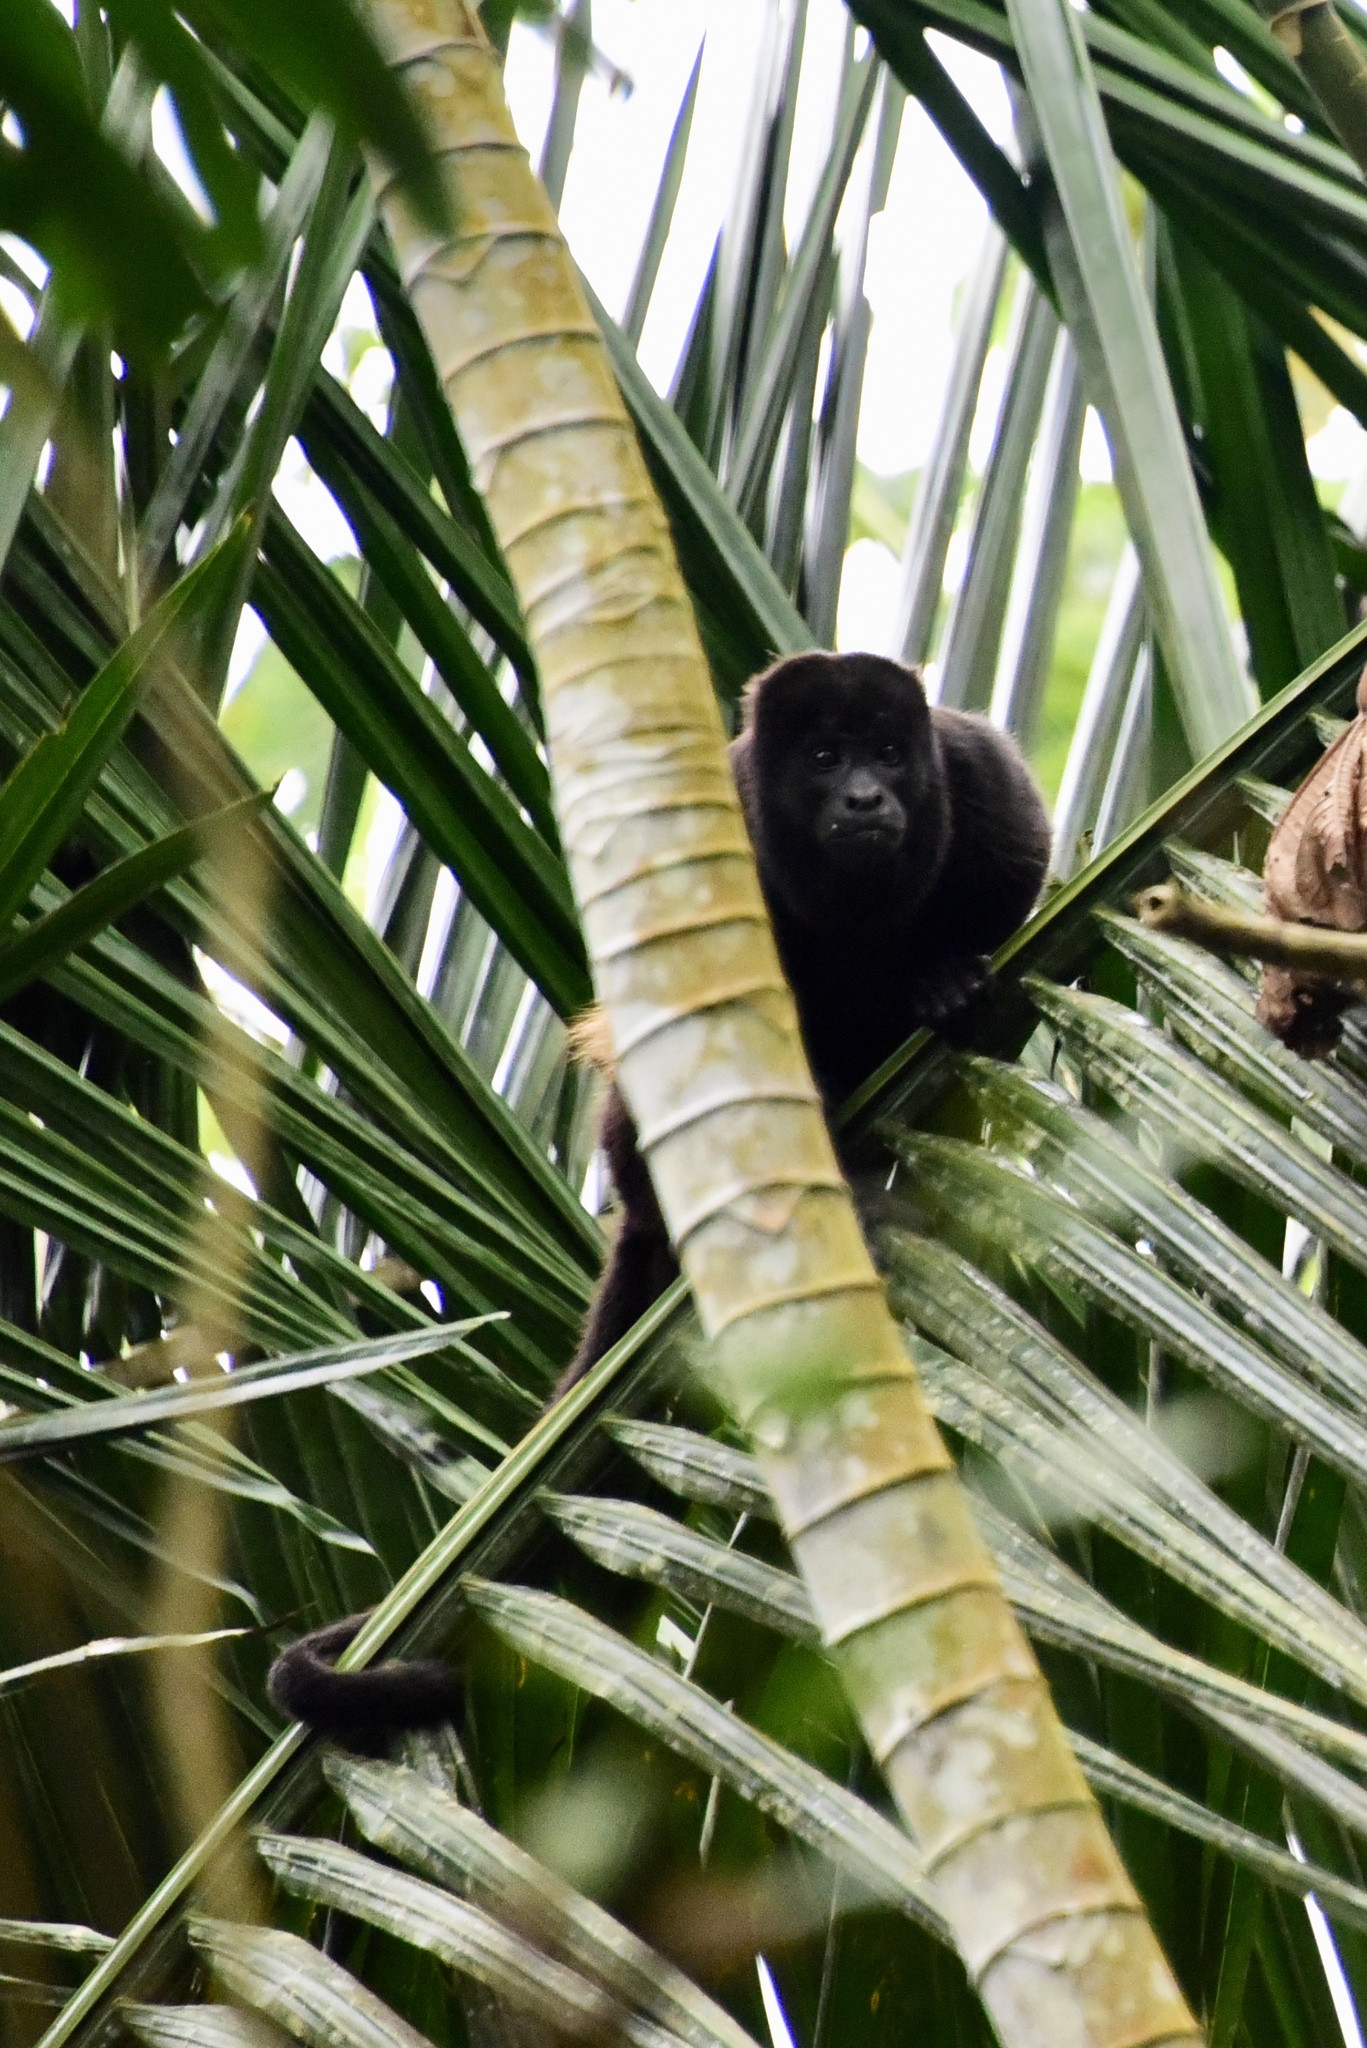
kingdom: Animalia
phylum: Chordata
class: Mammalia
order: Primates
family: Atelidae
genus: Alouatta
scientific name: Alouatta palliata
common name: Mantled howler
